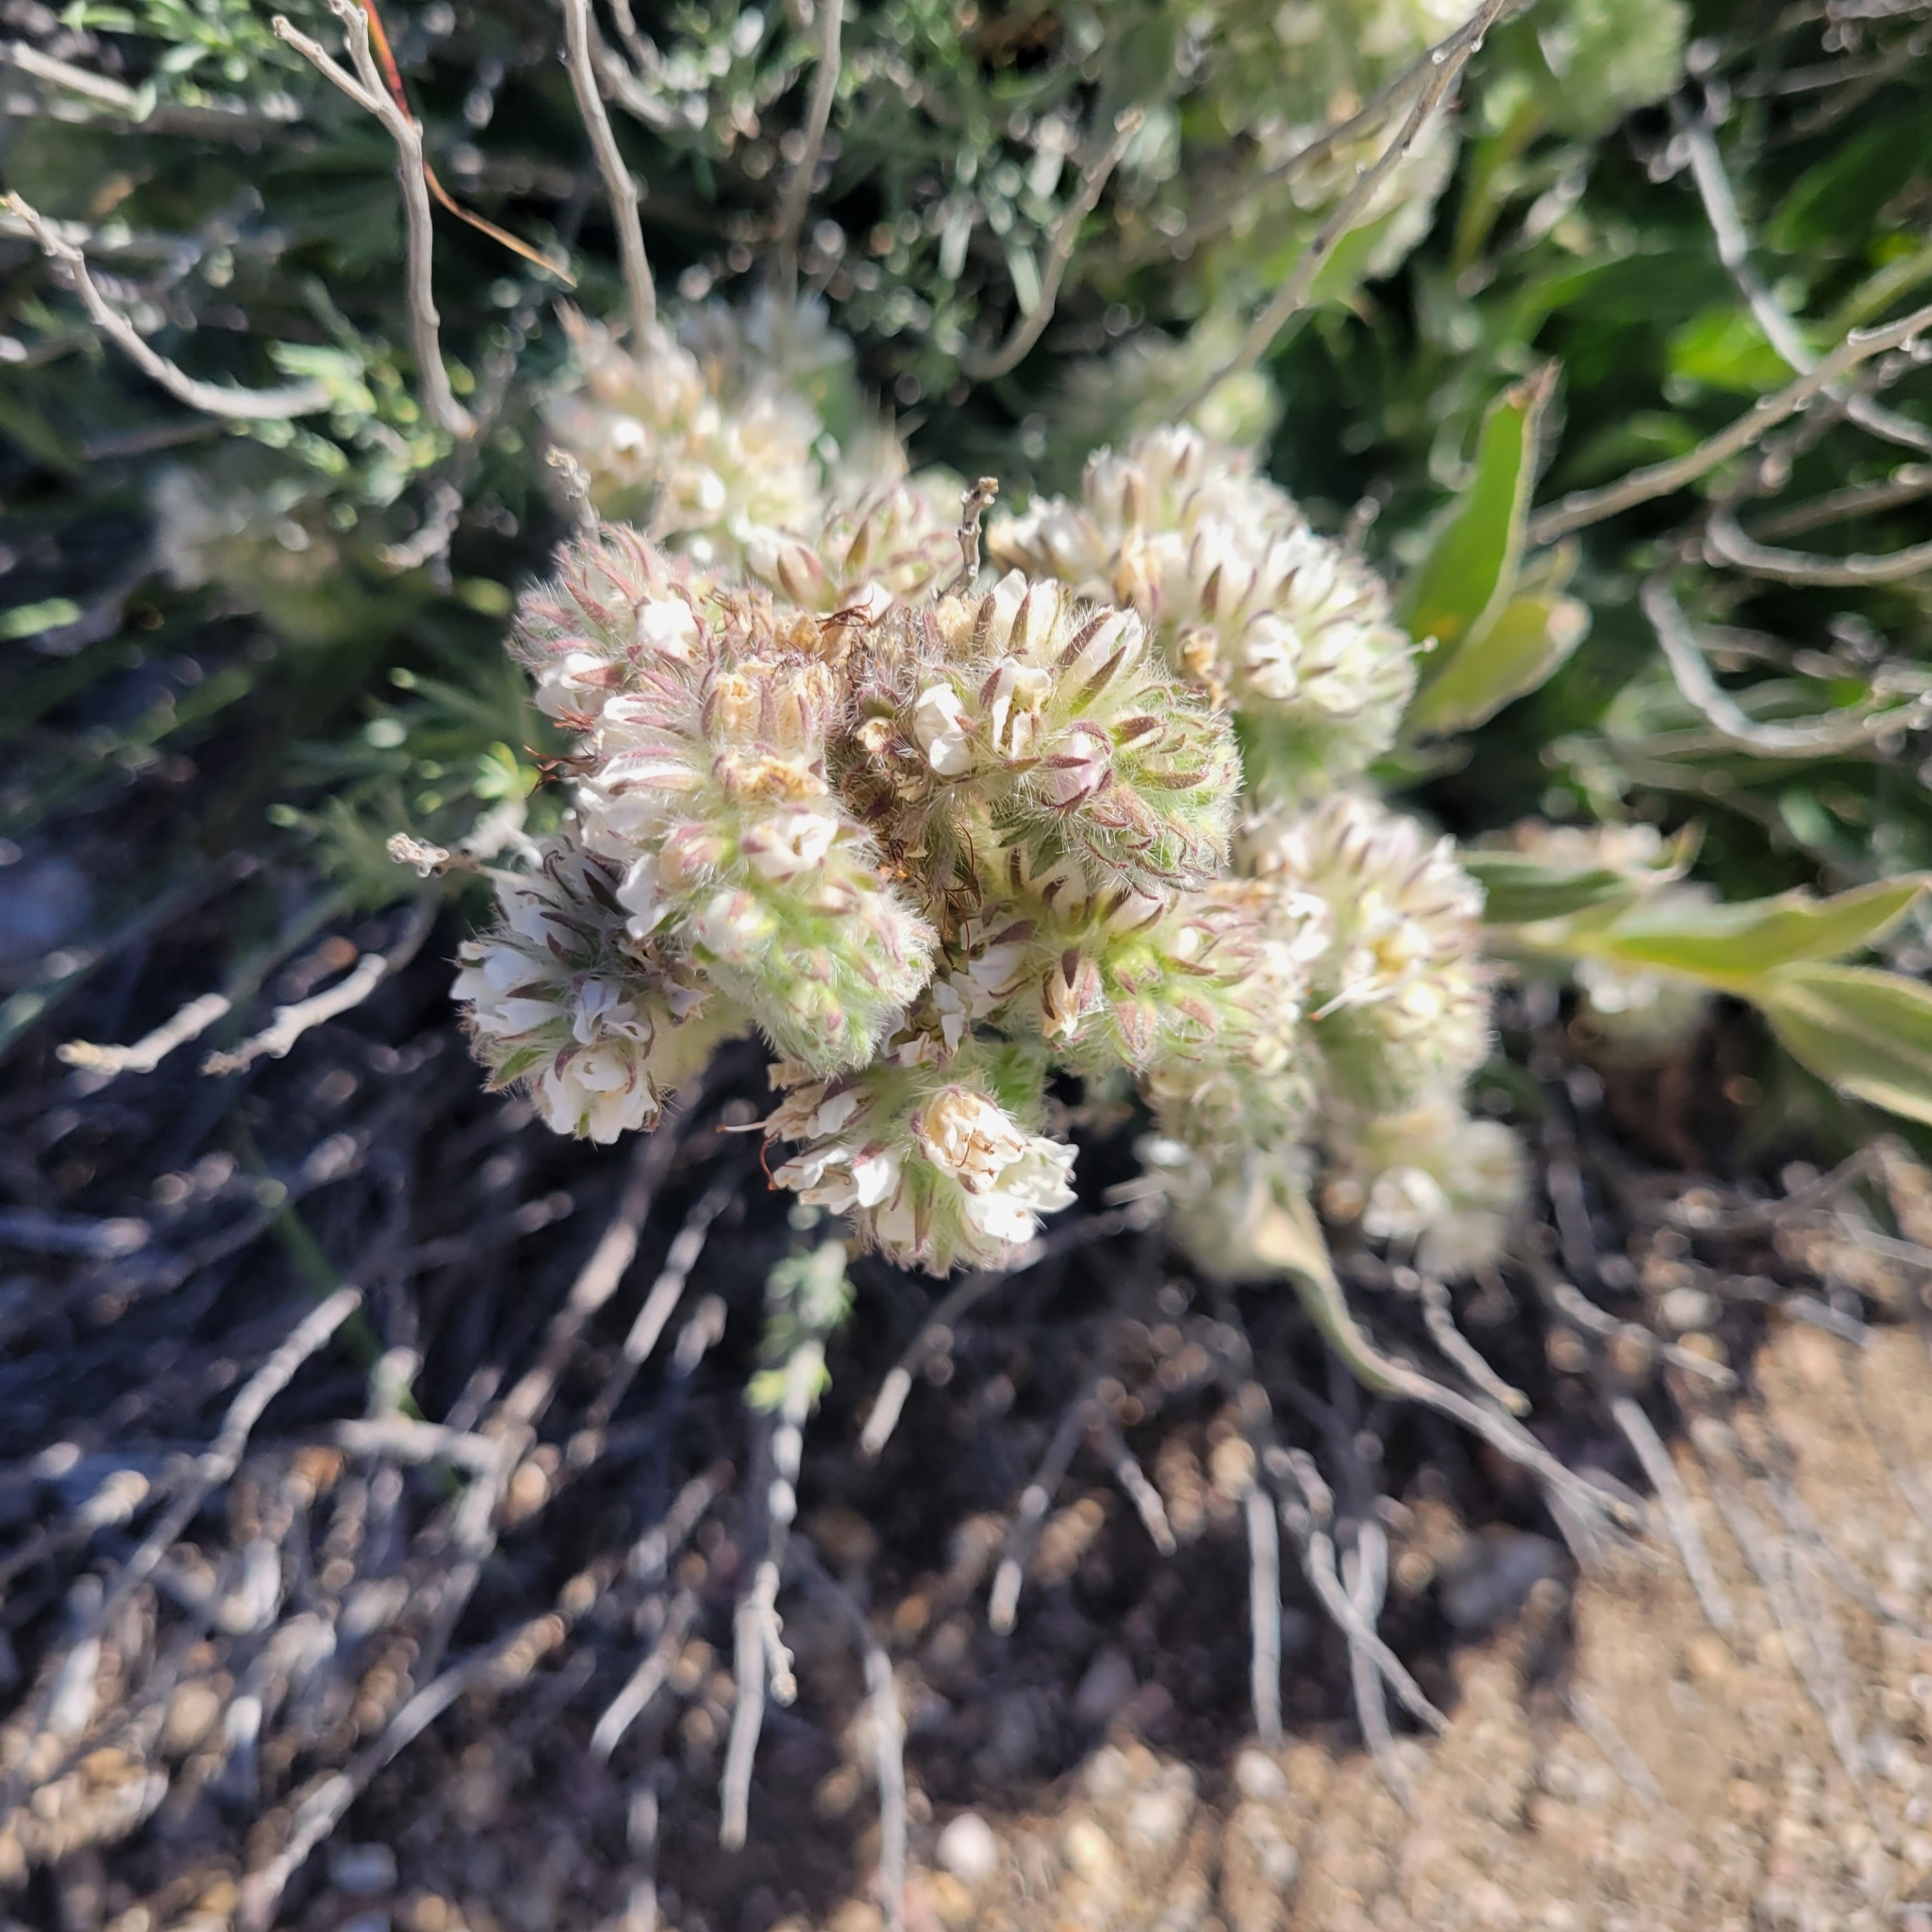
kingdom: Plantae
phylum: Tracheophyta
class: Magnoliopsida
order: Boraginales
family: Hydrophyllaceae
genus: Phacelia
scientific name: Phacelia imbricata
